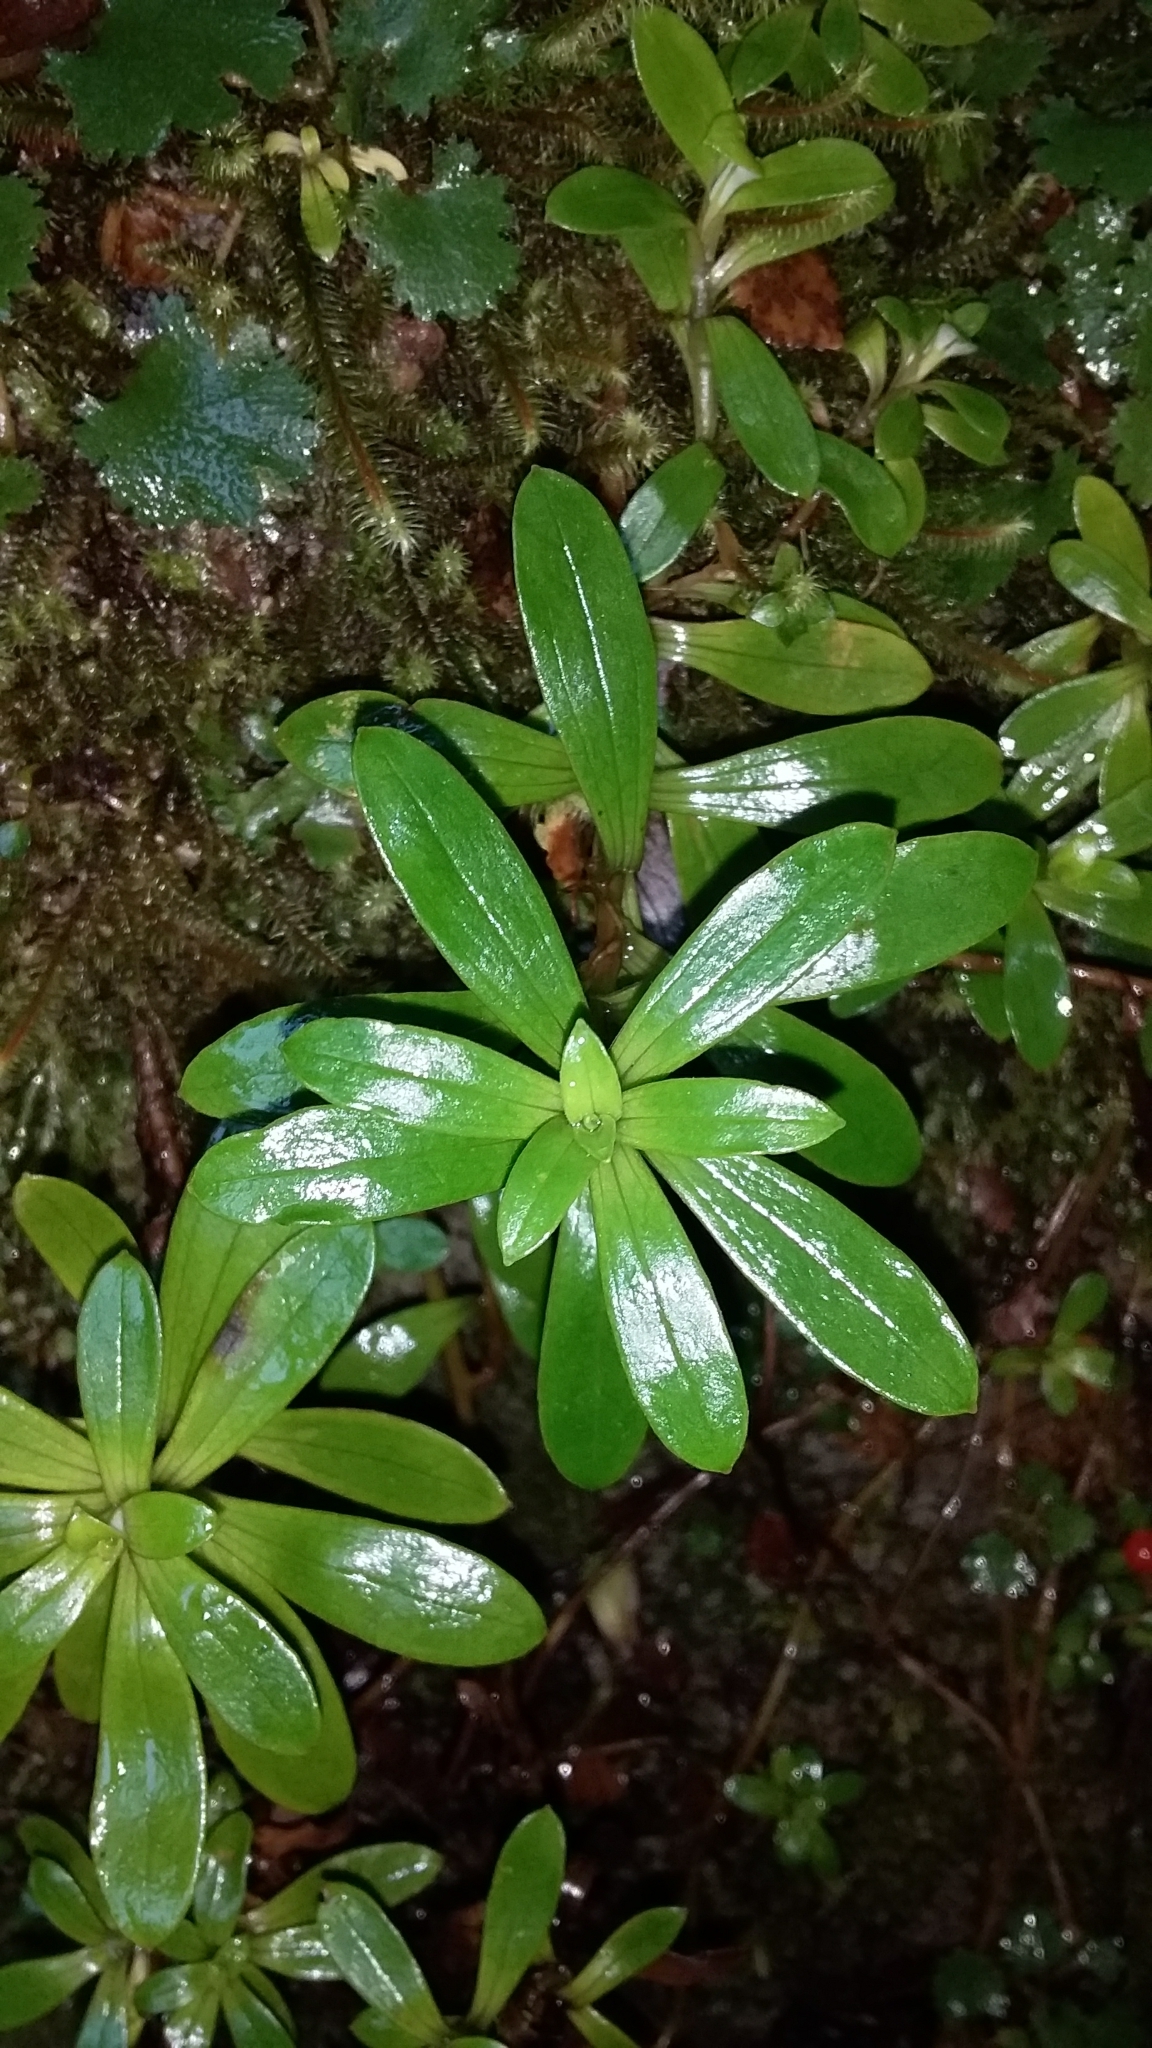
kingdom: Plantae
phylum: Tracheophyta
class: Magnoliopsida
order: Asterales
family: Asteraceae
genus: Anaphalioides
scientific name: Anaphalioides trinervis
